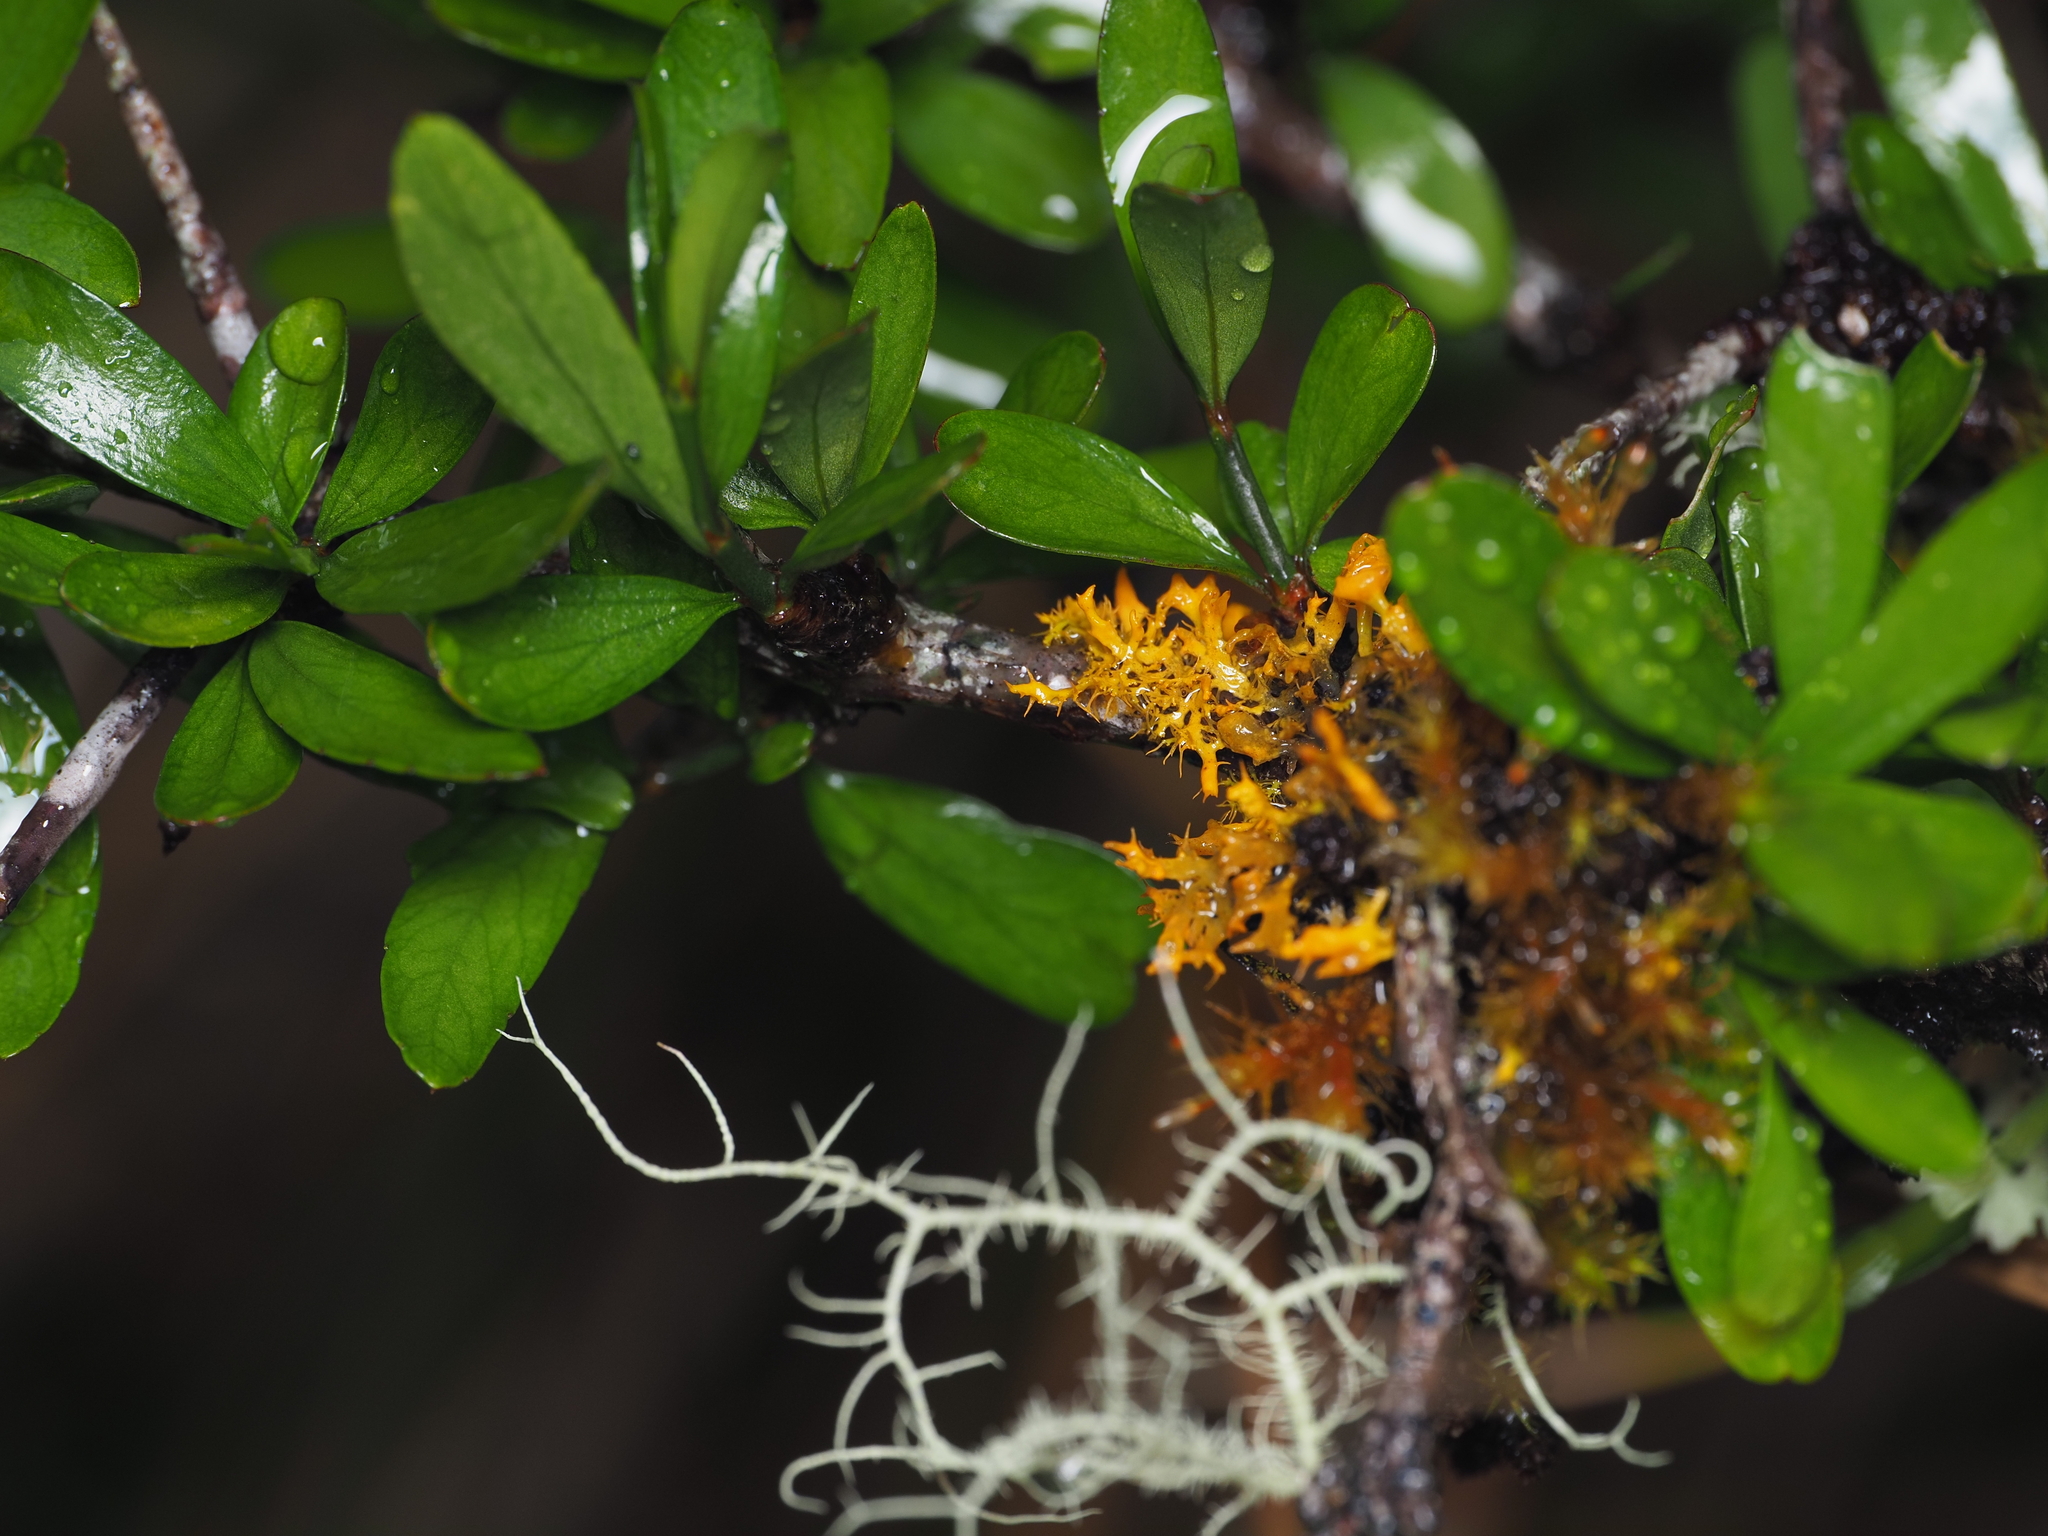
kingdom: Plantae
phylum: Tracheophyta
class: Magnoliopsida
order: Rosales
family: Rhamnaceae
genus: Discaria
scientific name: Discaria toumatou
